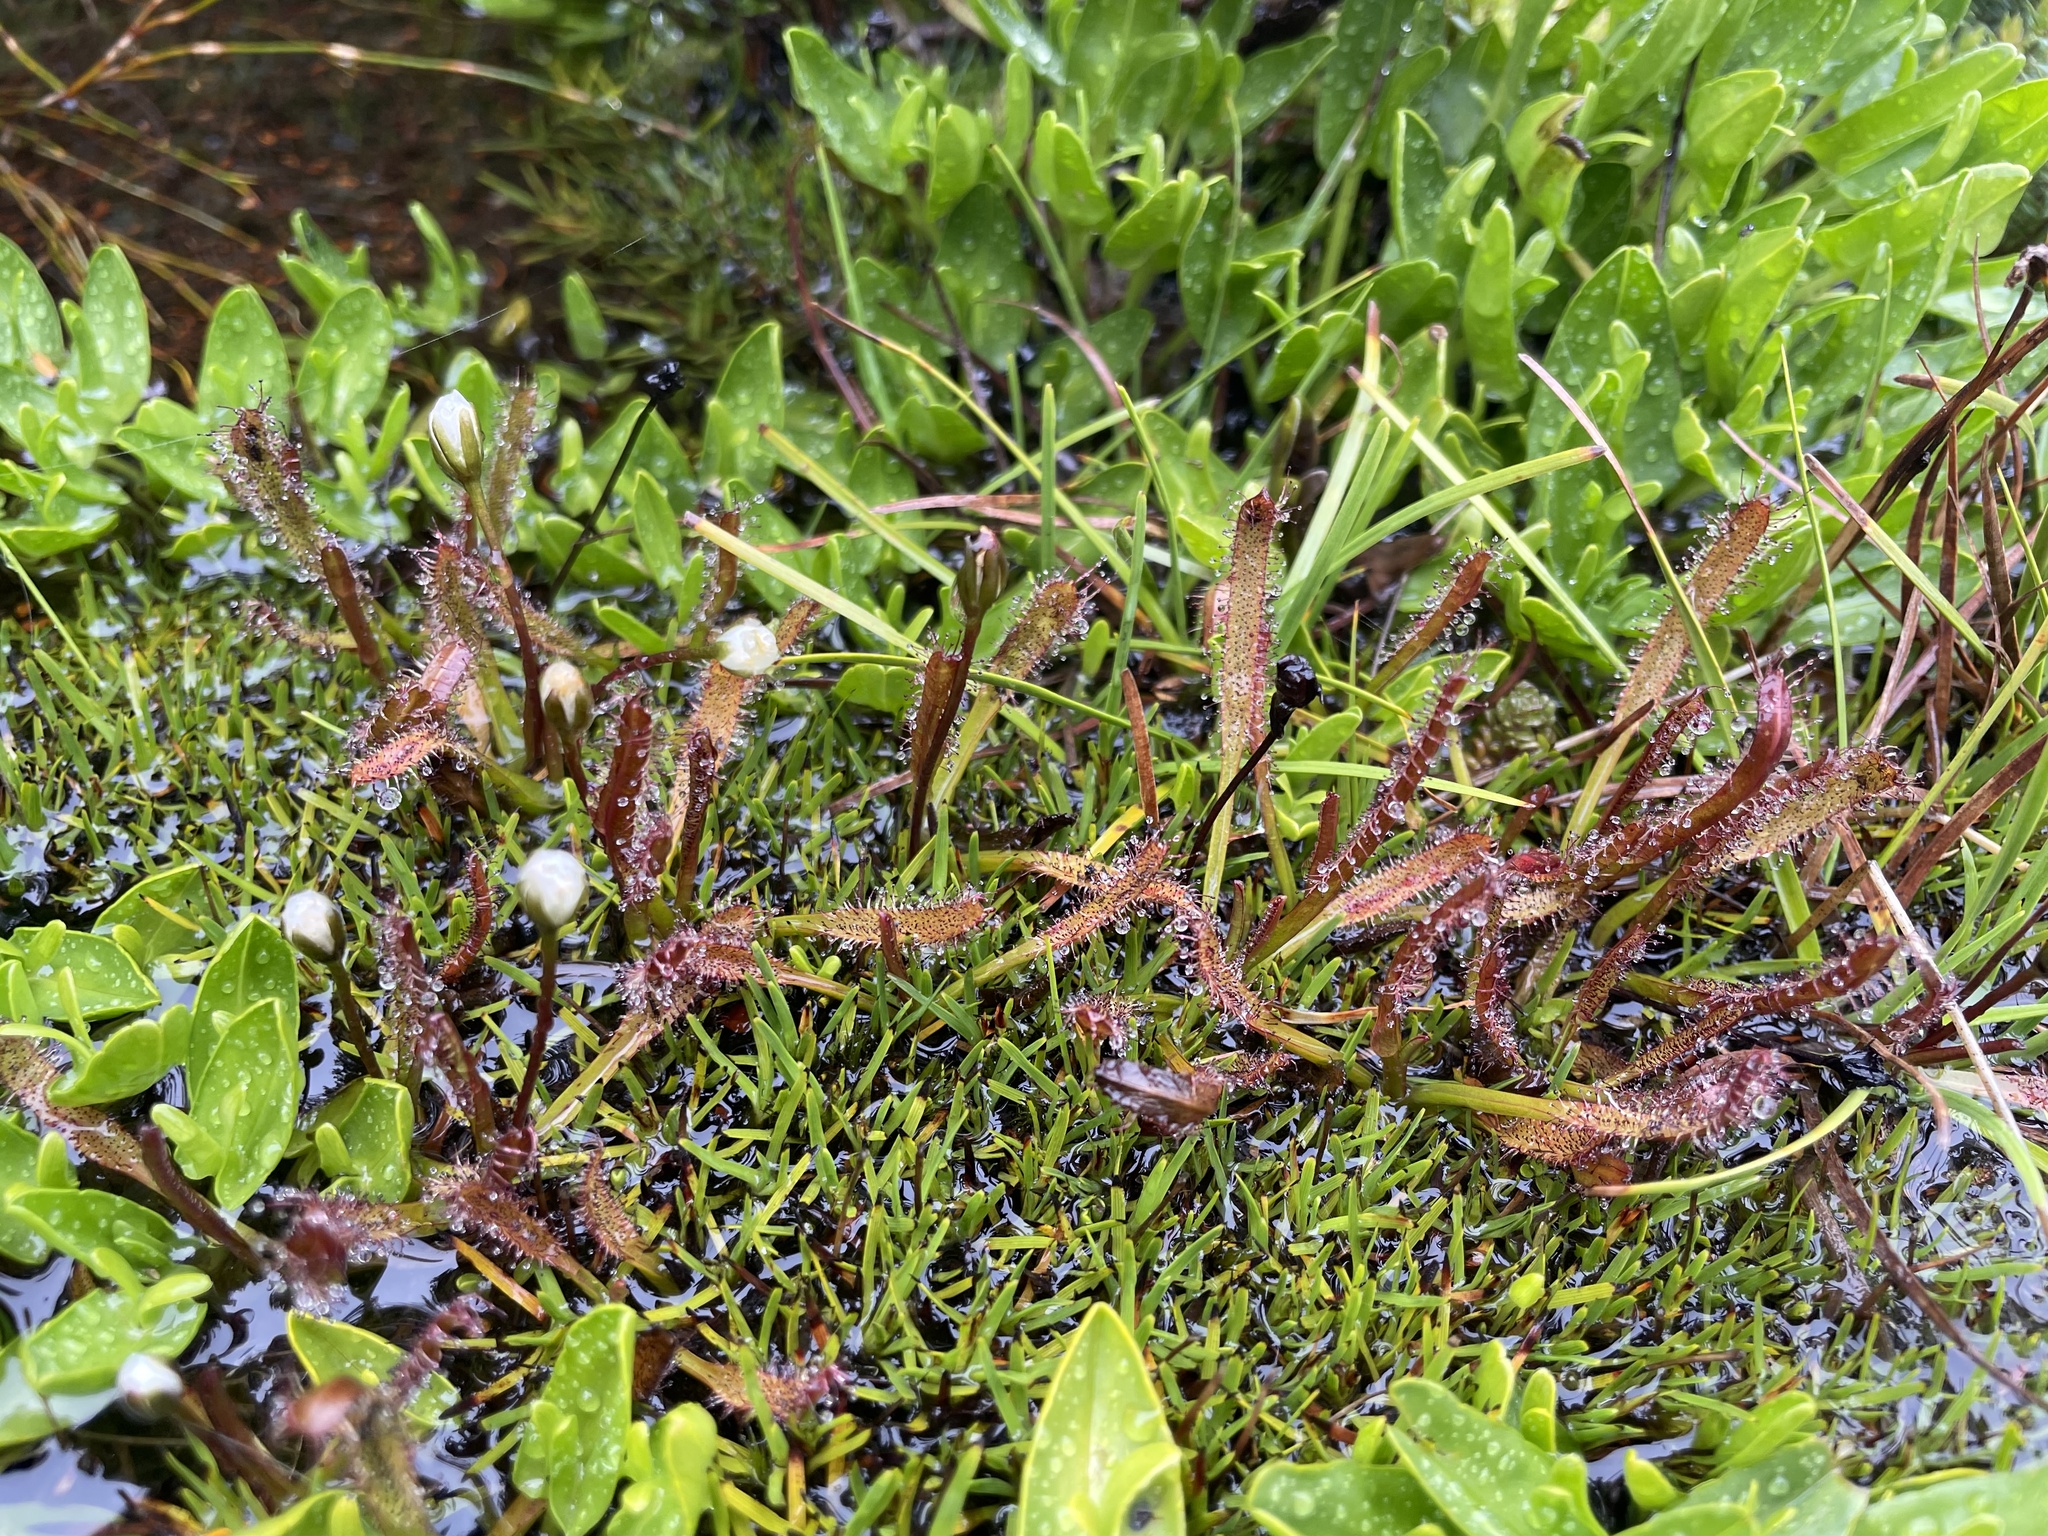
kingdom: Plantae
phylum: Tracheophyta
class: Magnoliopsida
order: Caryophyllales
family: Droseraceae
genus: Drosera
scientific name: Drosera arcturi
